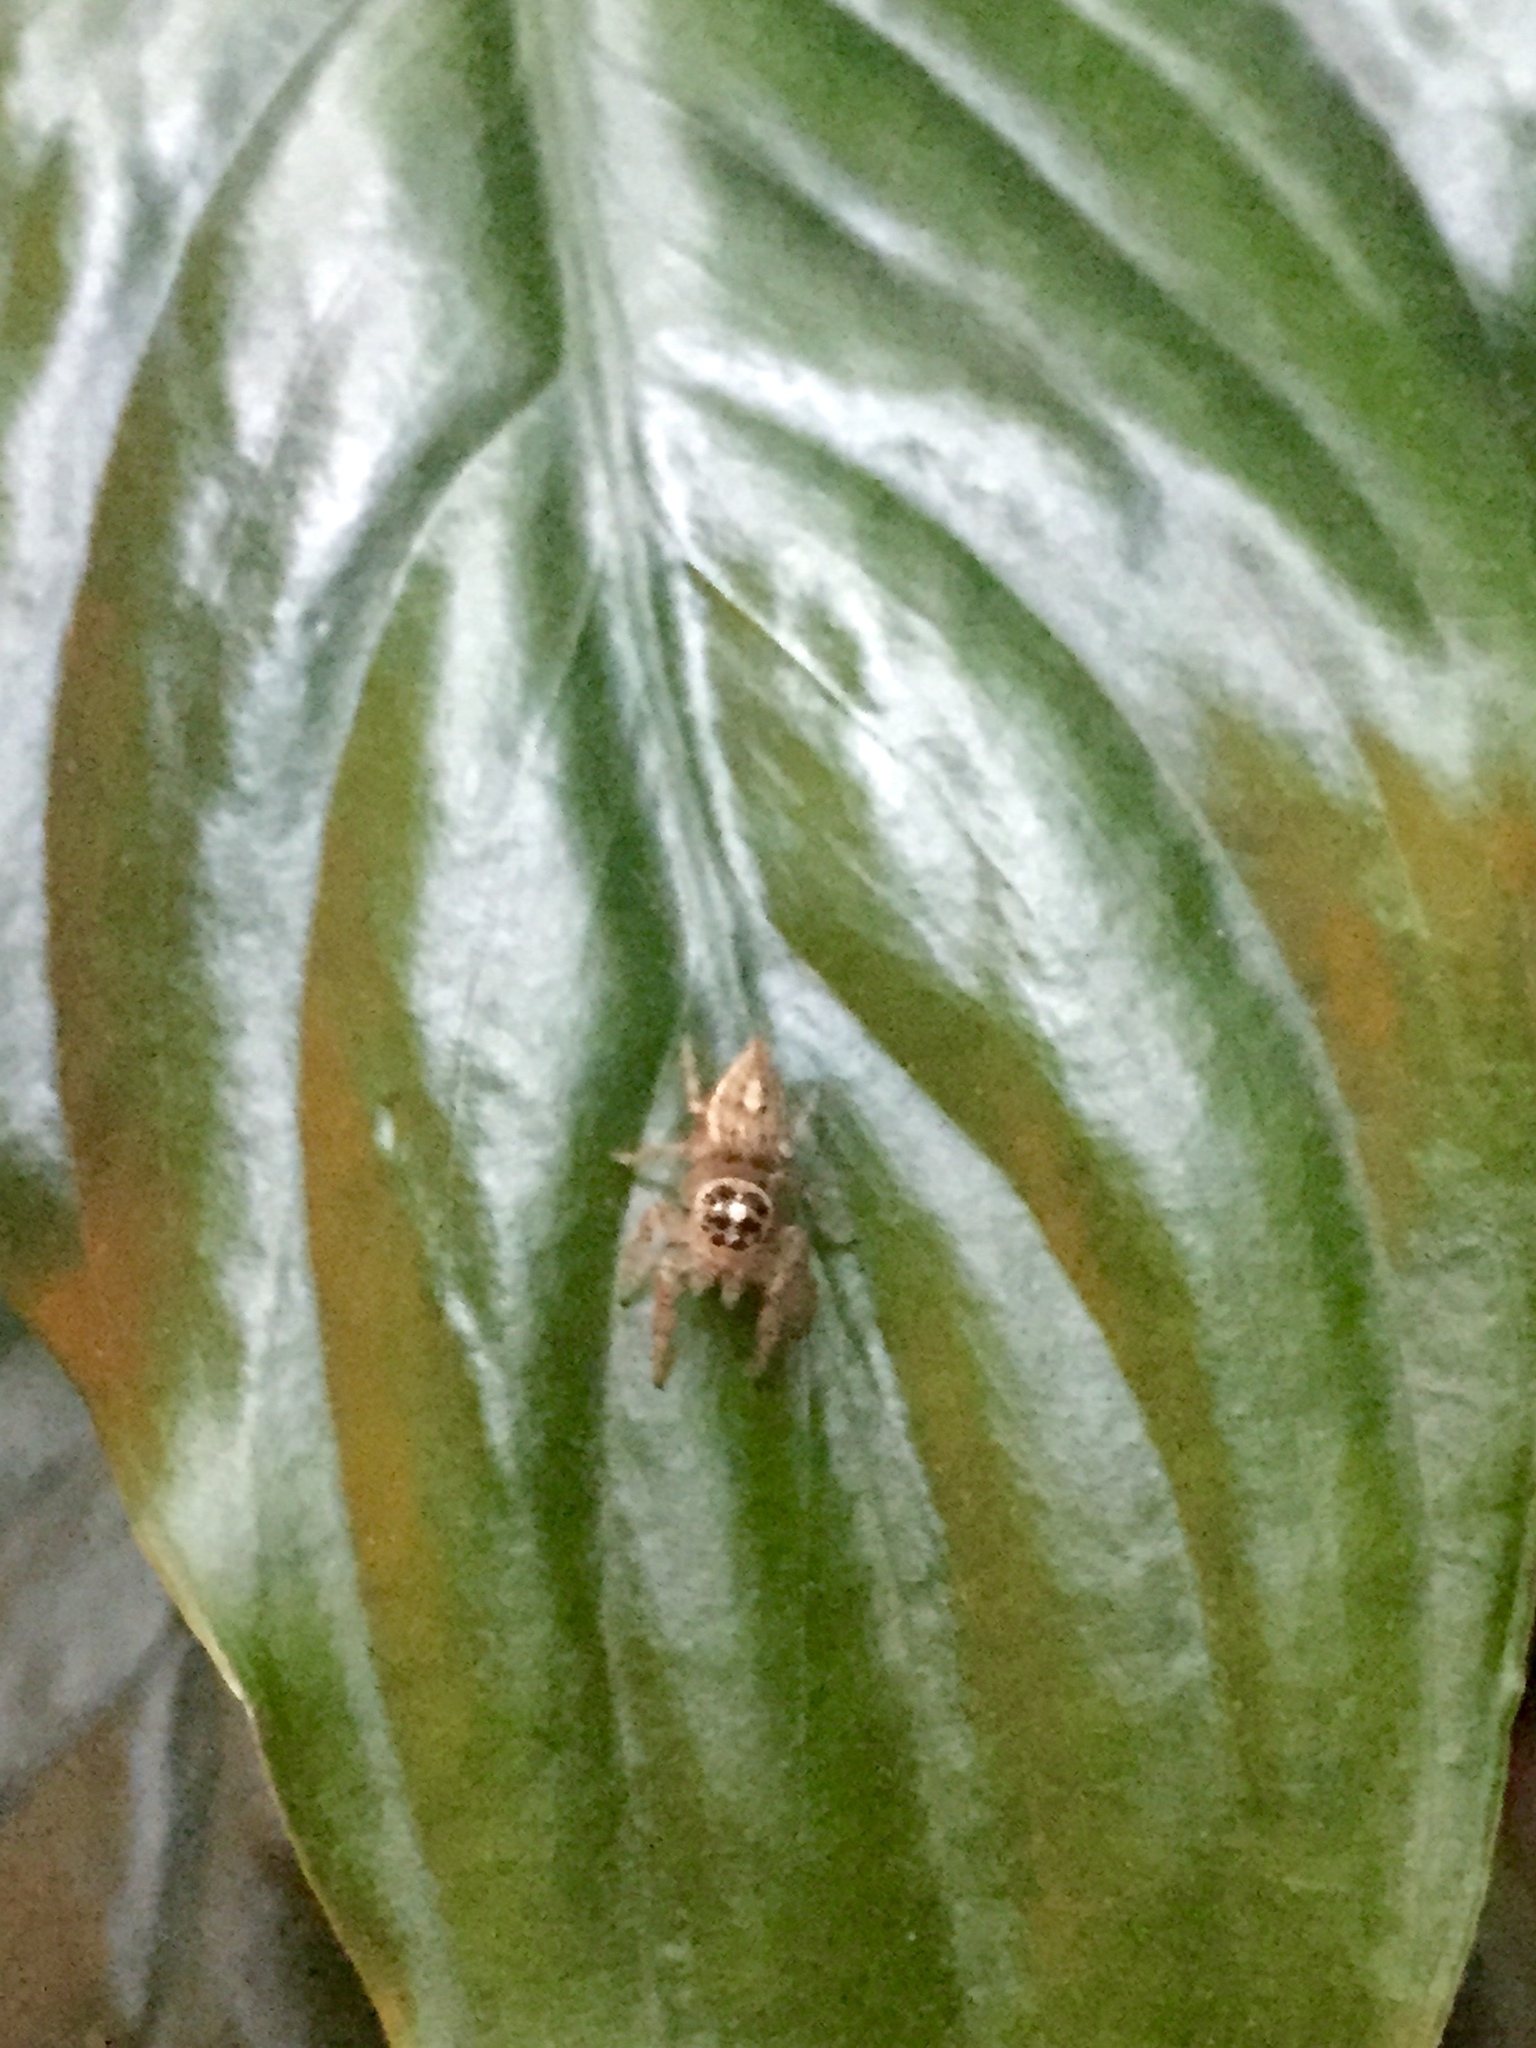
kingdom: Animalia
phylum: Arthropoda
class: Arachnida
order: Araneae
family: Salticidae
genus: Colonus
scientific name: Colonus hesperus
